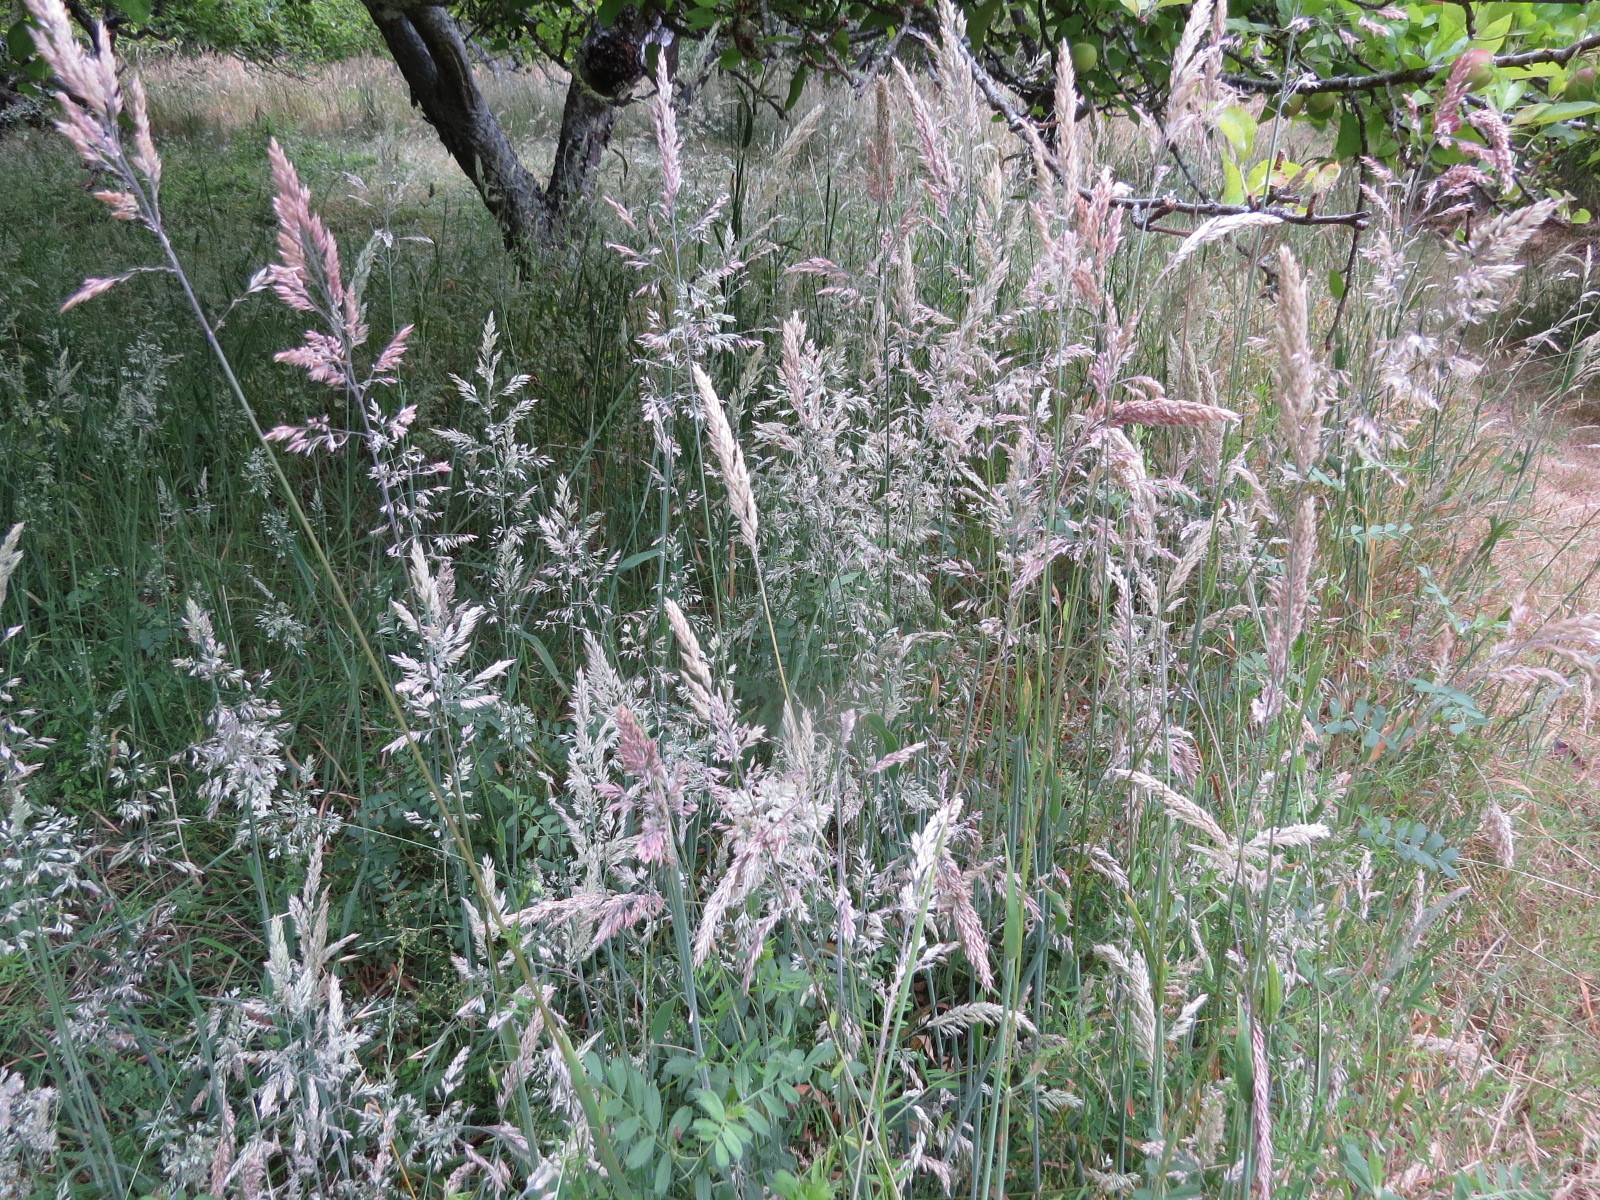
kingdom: Plantae
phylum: Tracheophyta
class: Liliopsida
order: Poales
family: Poaceae
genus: Holcus
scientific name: Holcus lanatus
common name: Yorkshire-fog
